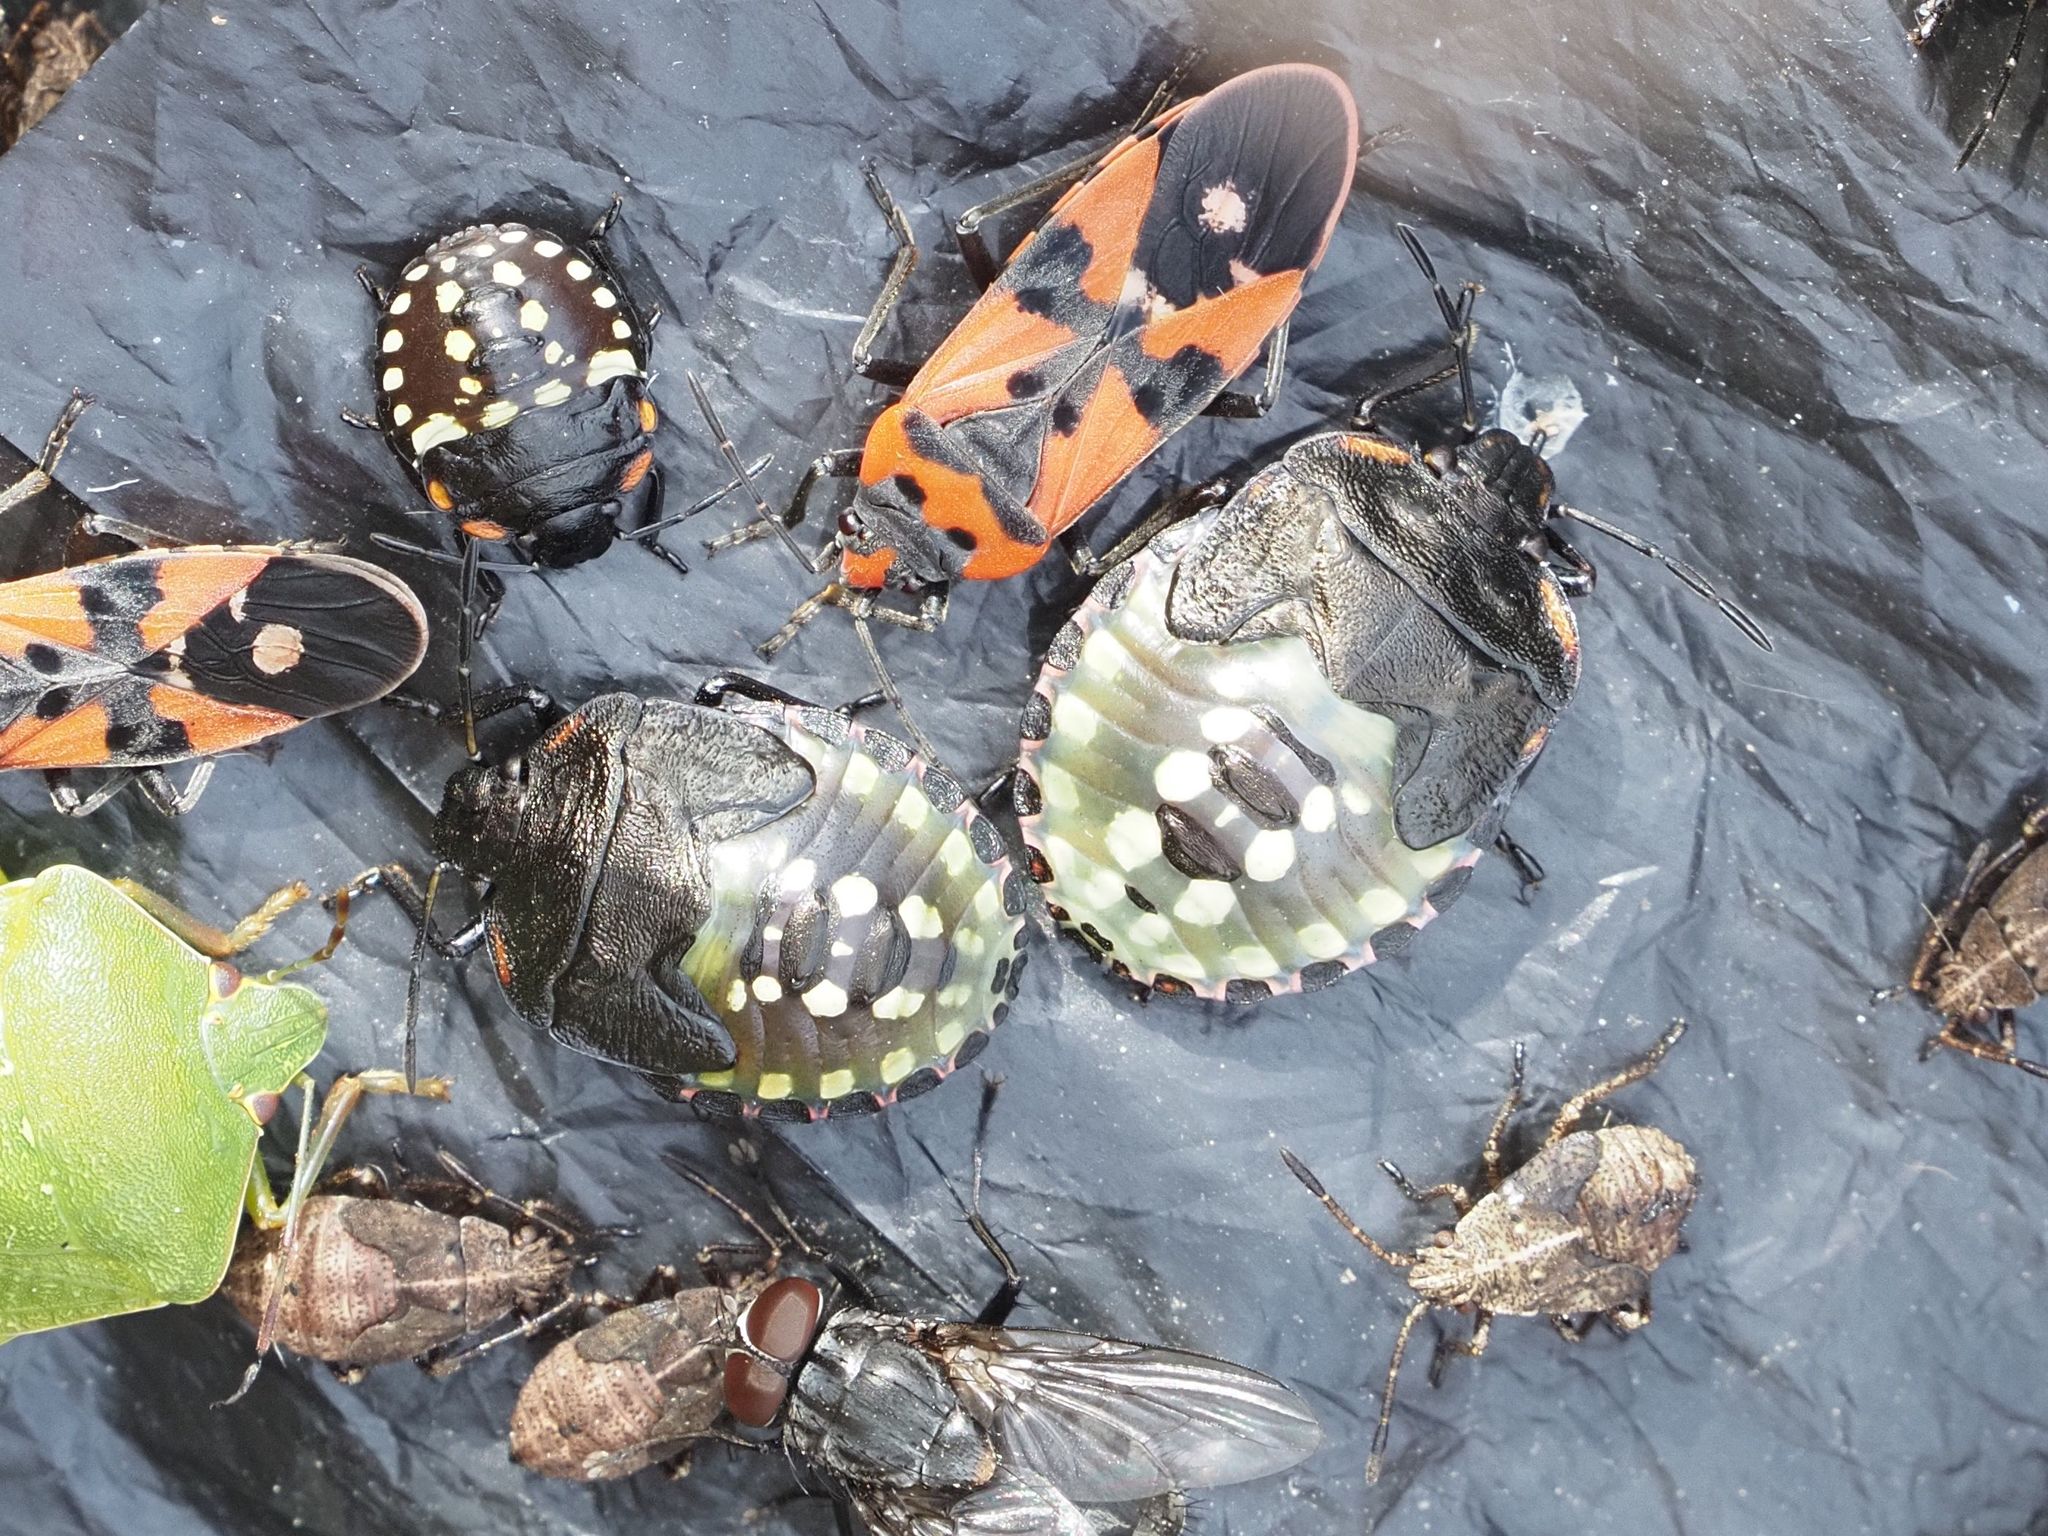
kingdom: Animalia
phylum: Arthropoda
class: Insecta
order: Hemiptera
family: Pentatomidae
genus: Nezara
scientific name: Nezara viridula
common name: Southern green stink bug
